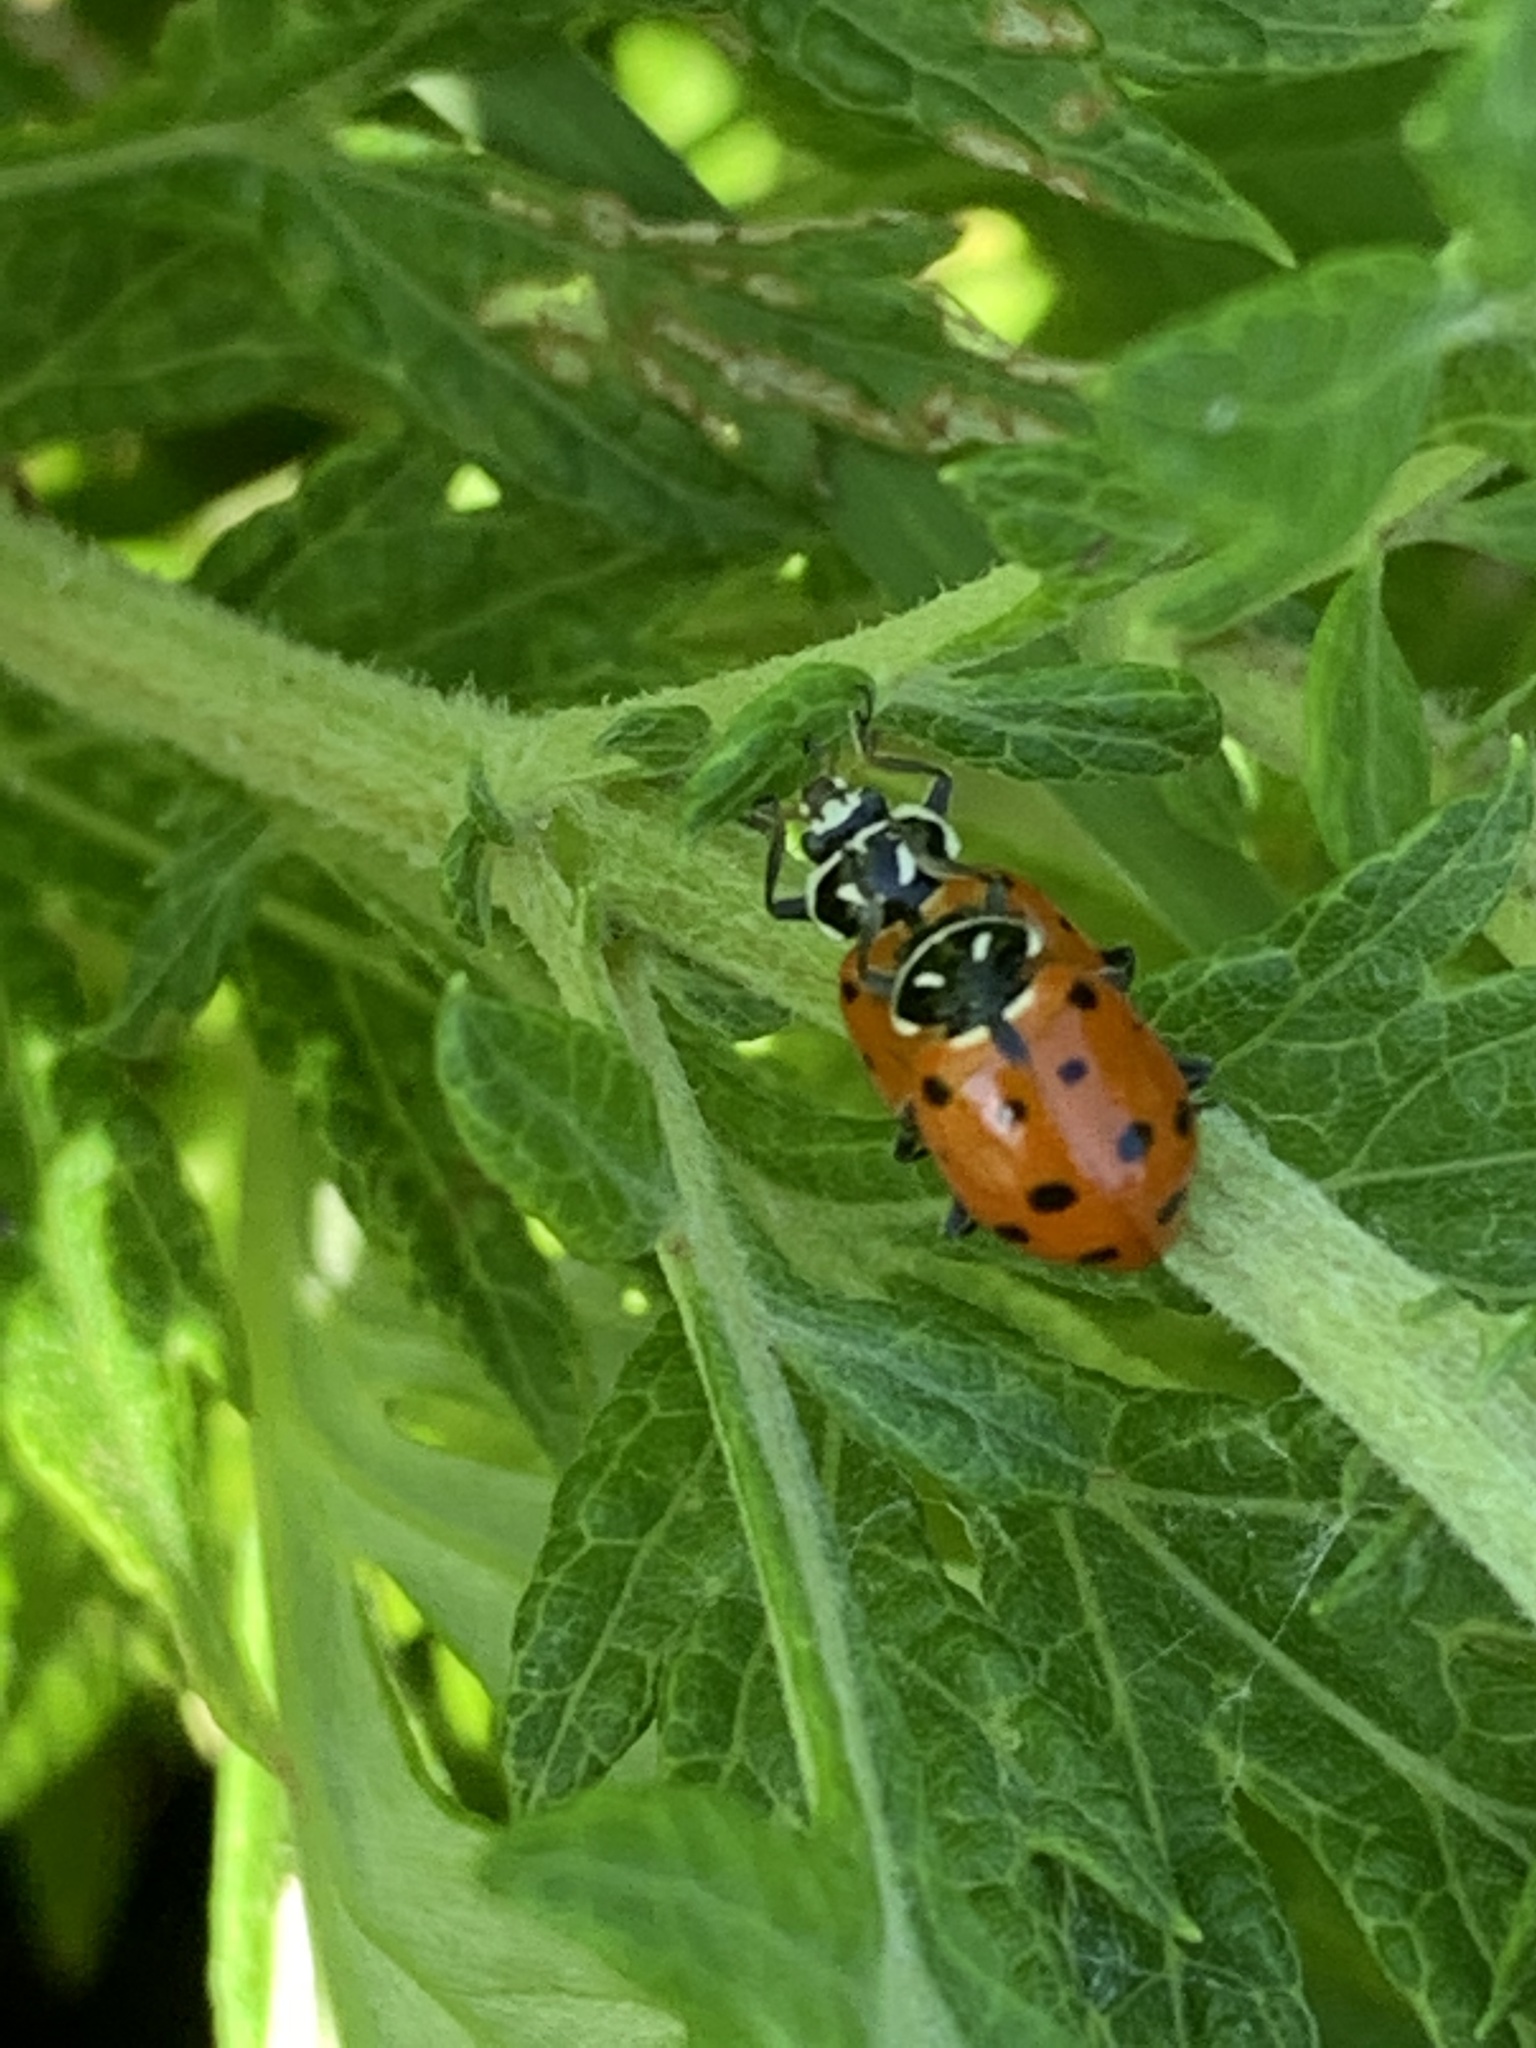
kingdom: Animalia
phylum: Arthropoda
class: Insecta
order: Coleoptera
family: Coccinellidae
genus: Hippodamia
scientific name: Hippodamia convergens
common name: Convergent lady beetle
